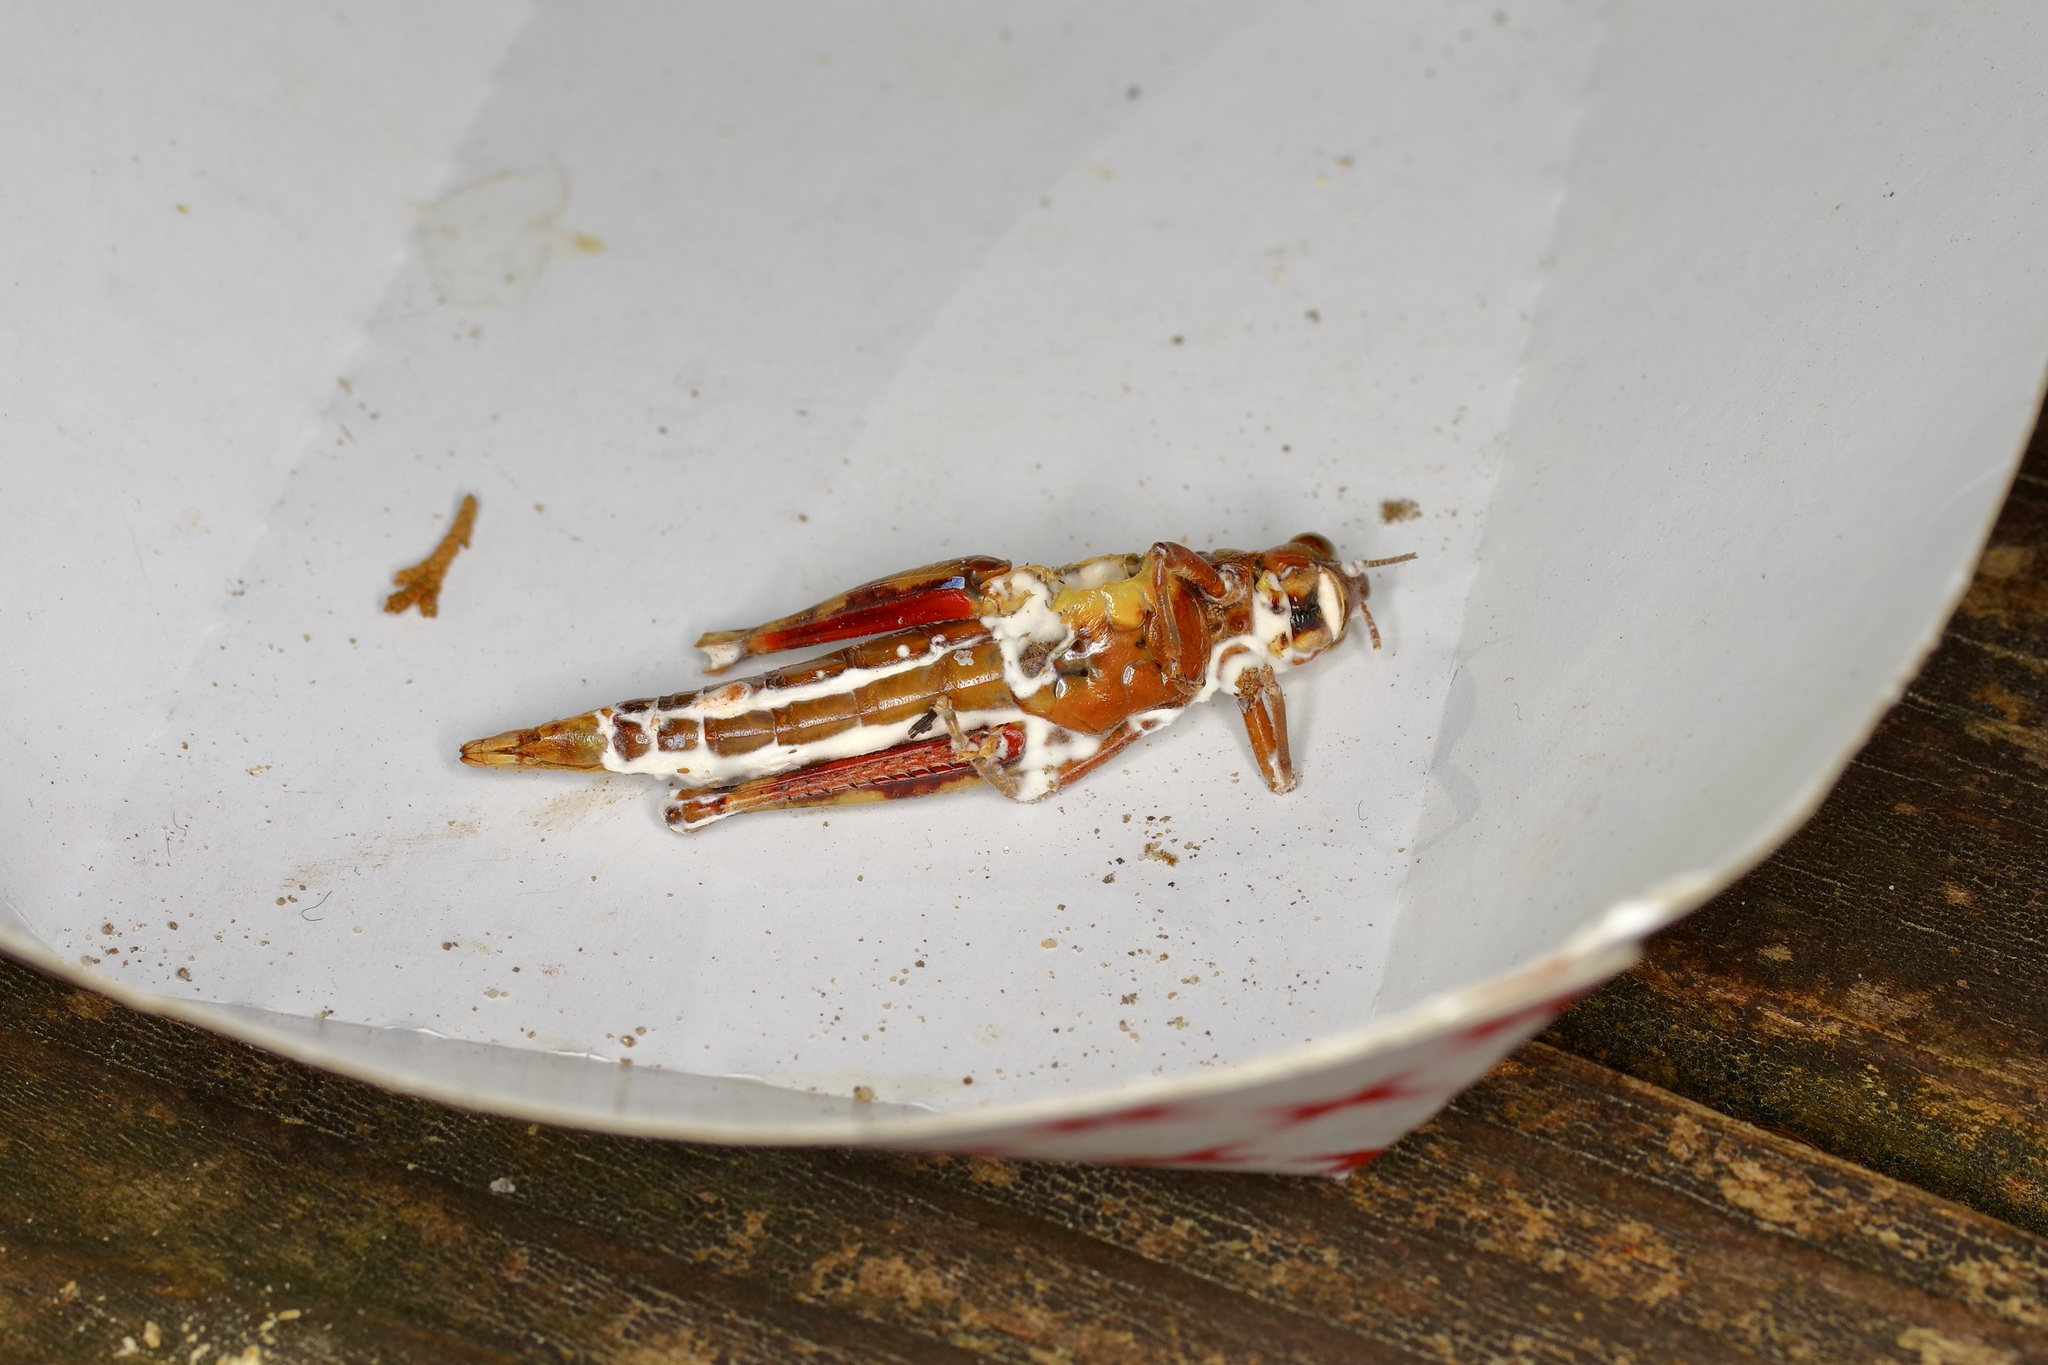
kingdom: Fungi
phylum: Ascomycota
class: Sordariomycetes
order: Hypocreales
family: Cordycipitaceae
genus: Beauveria
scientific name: Beauveria bassiana
